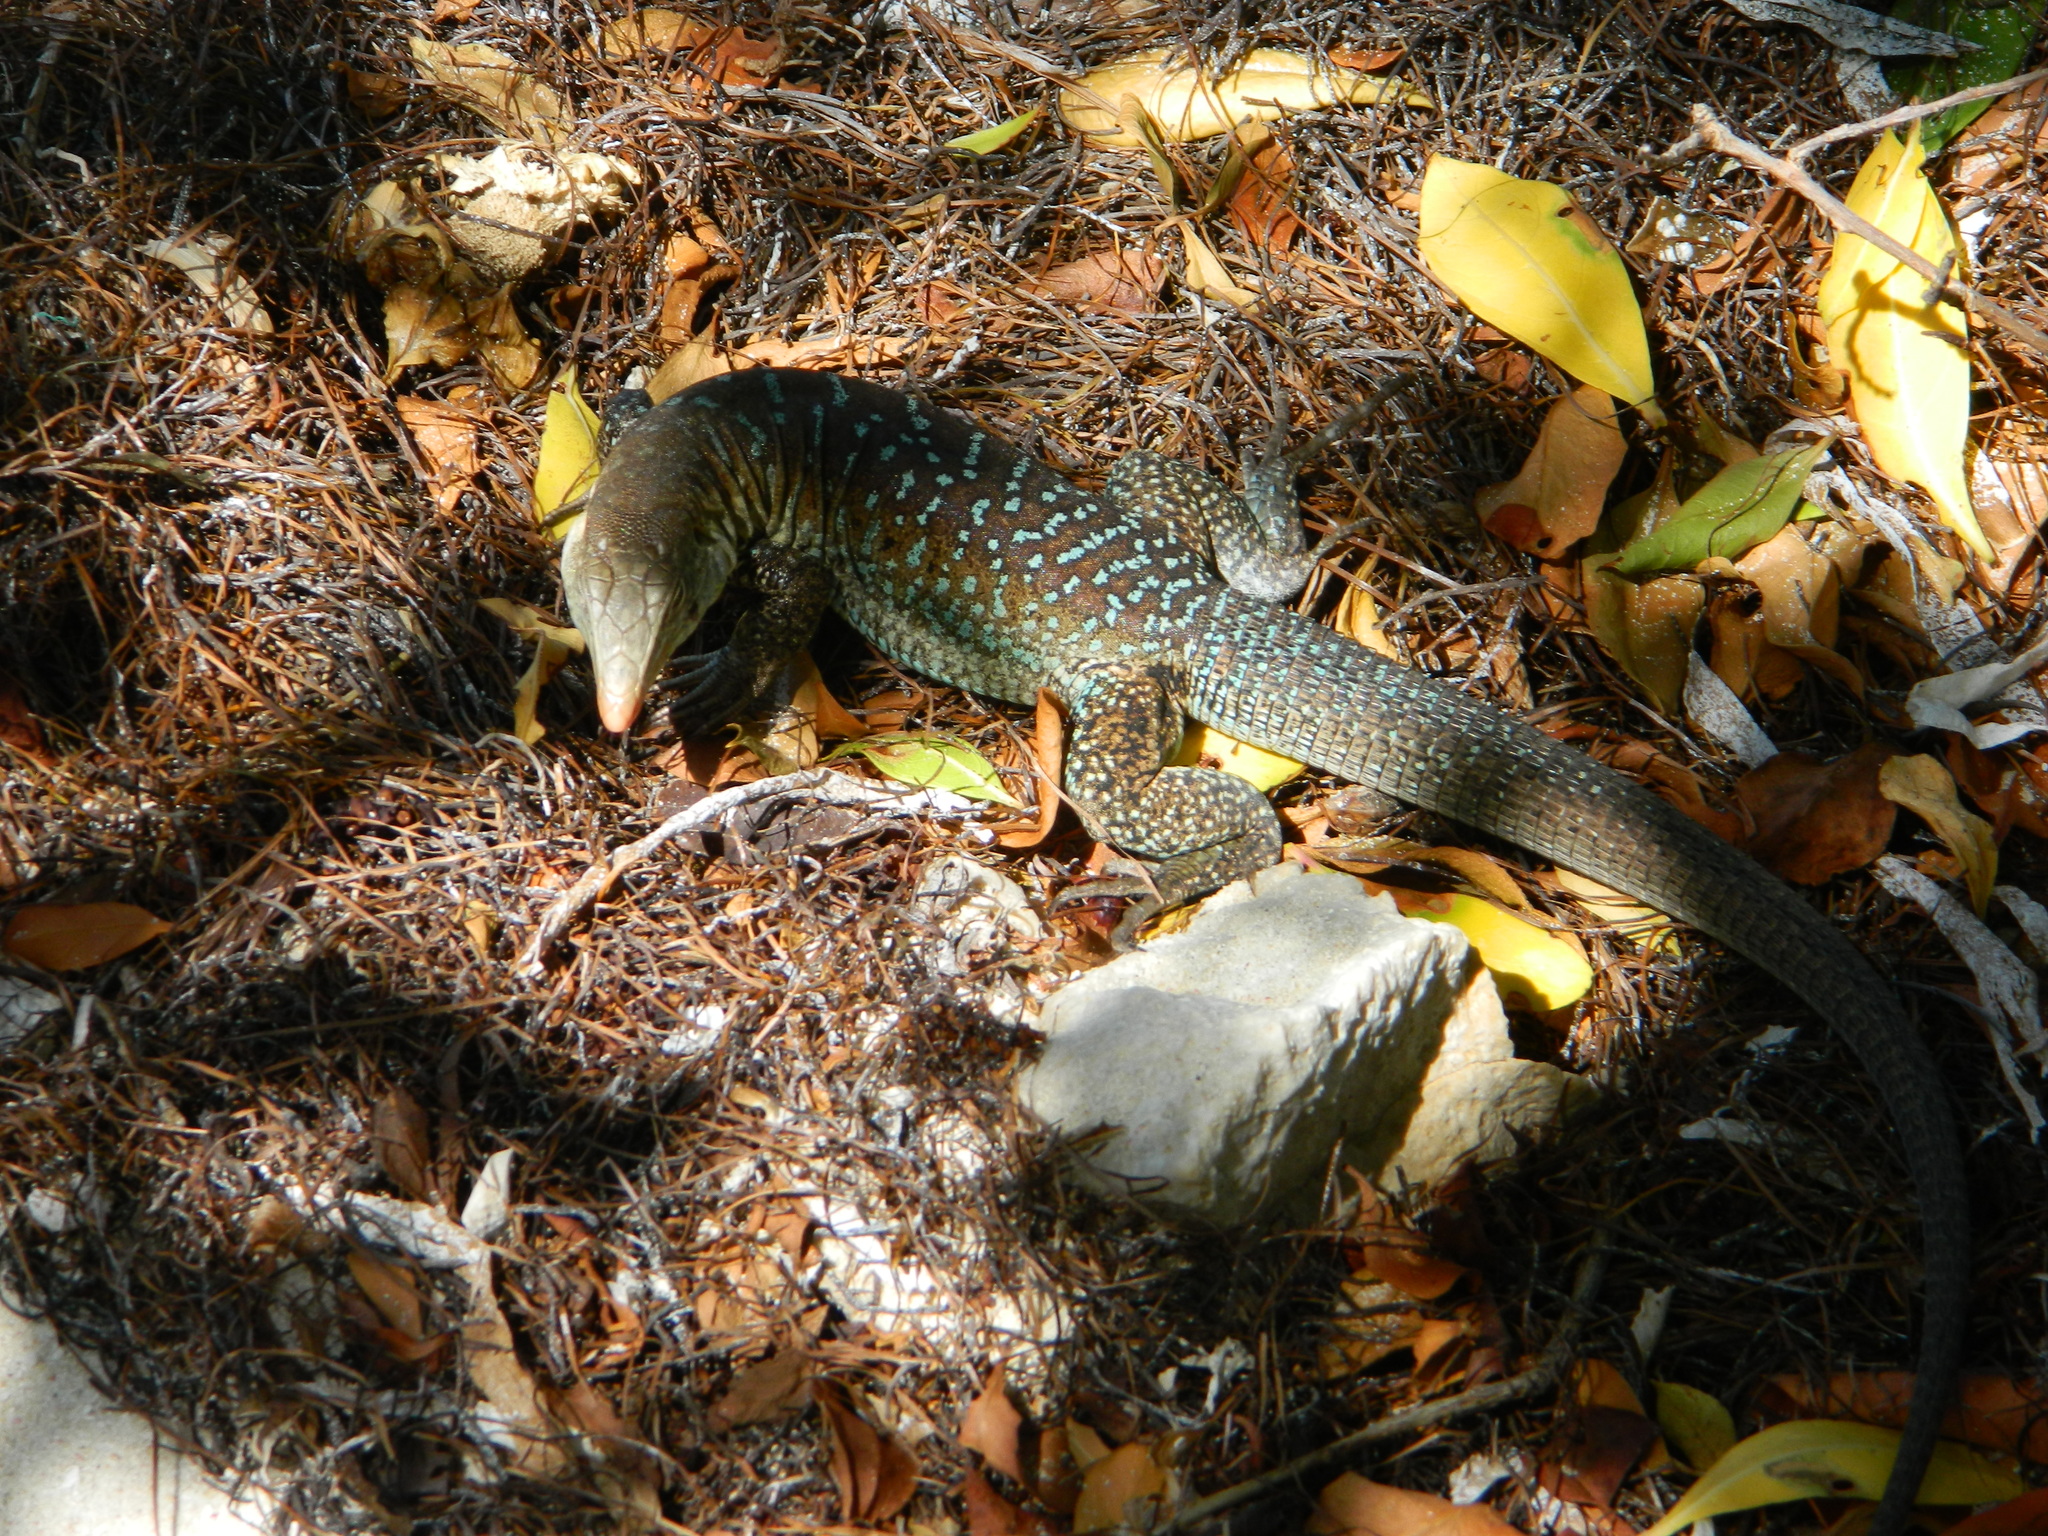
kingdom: Animalia
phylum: Chordata
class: Squamata
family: Teiidae
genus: Pholidoscelis
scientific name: Pholidoscelis griswoldi
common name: Antiguan ameiva
